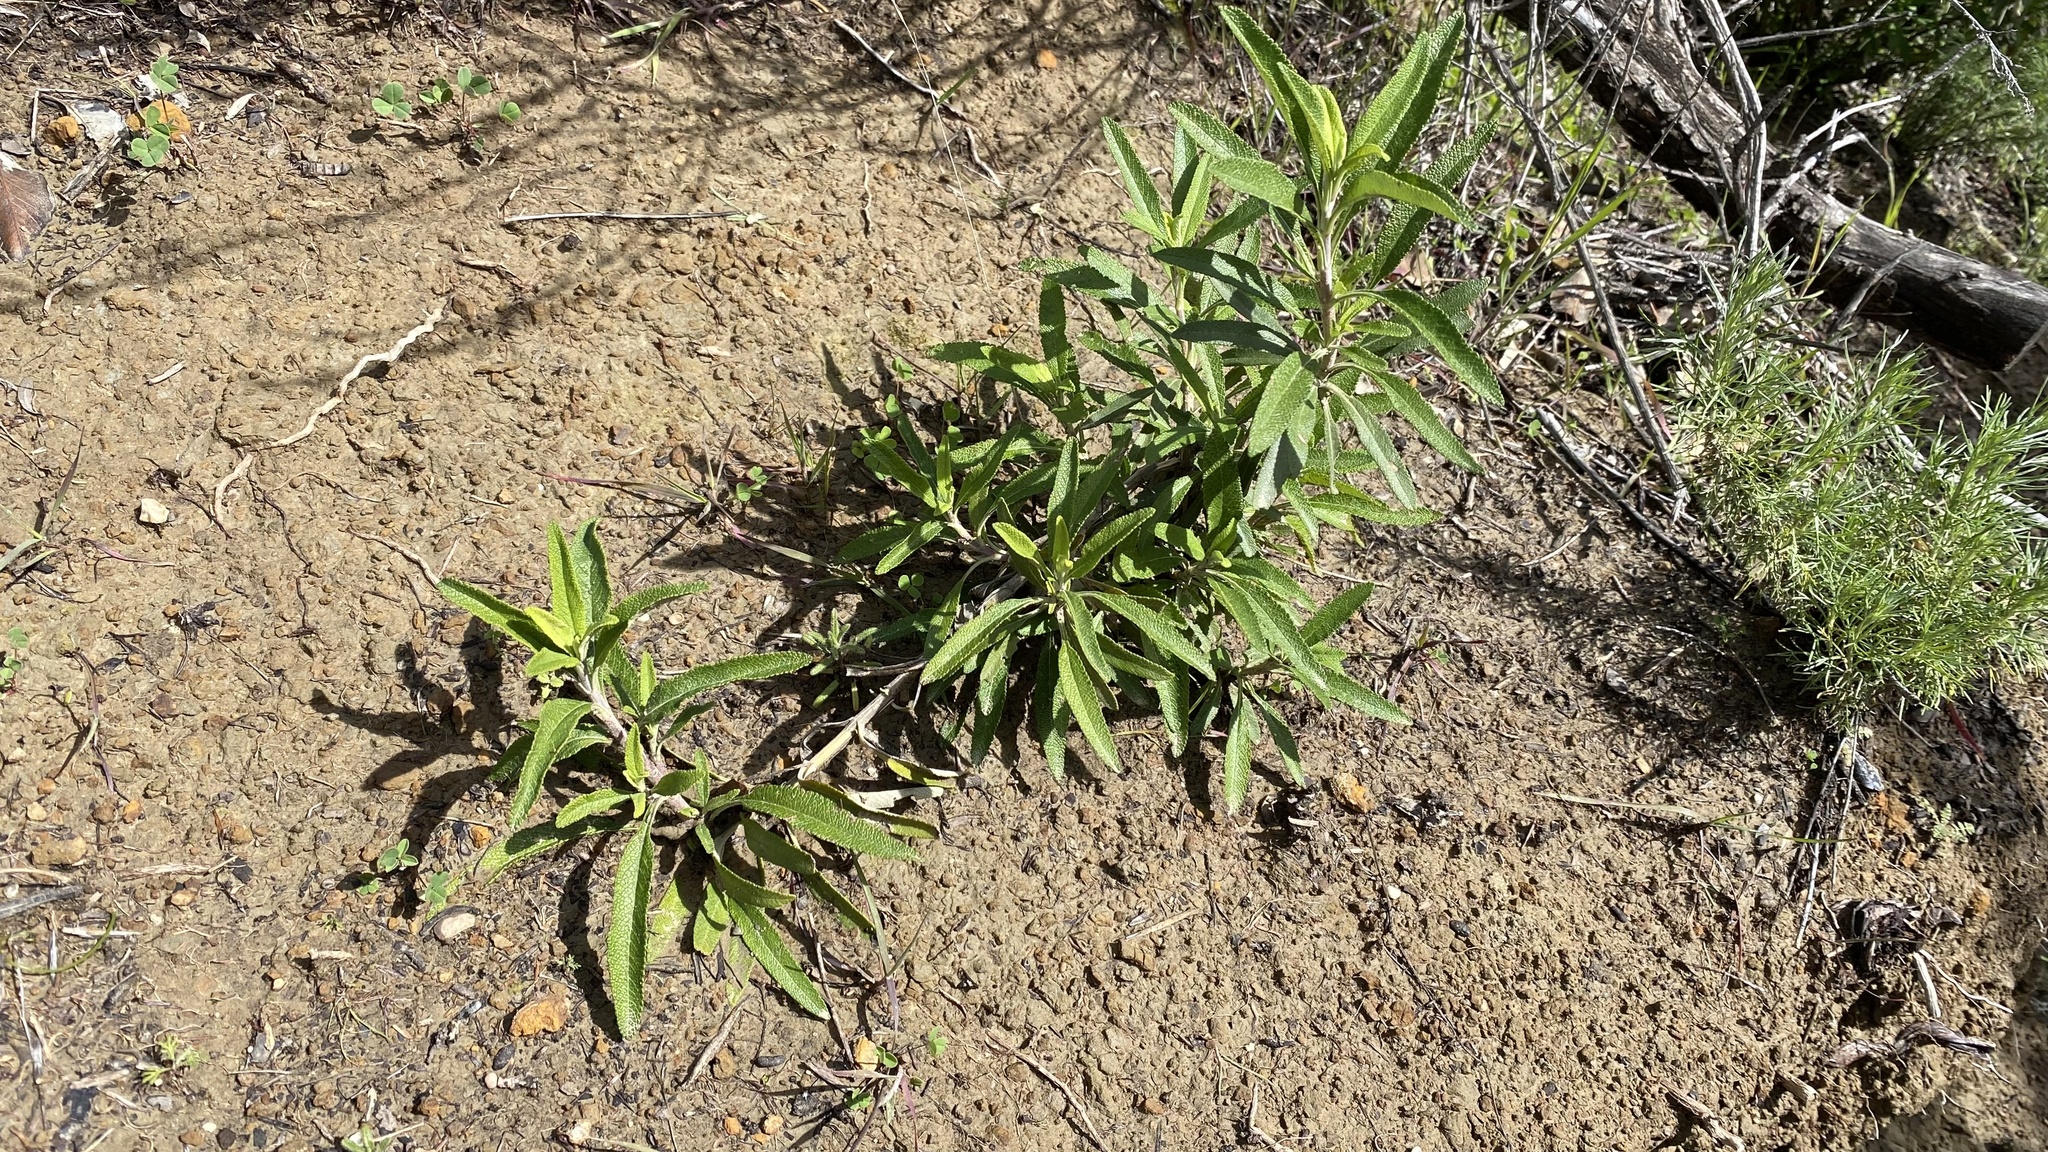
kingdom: Plantae
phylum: Tracheophyta
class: Magnoliopsida
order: Lamiales
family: Lamiaceae
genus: Salvia
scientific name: Salvia mellifera
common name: Black sage
